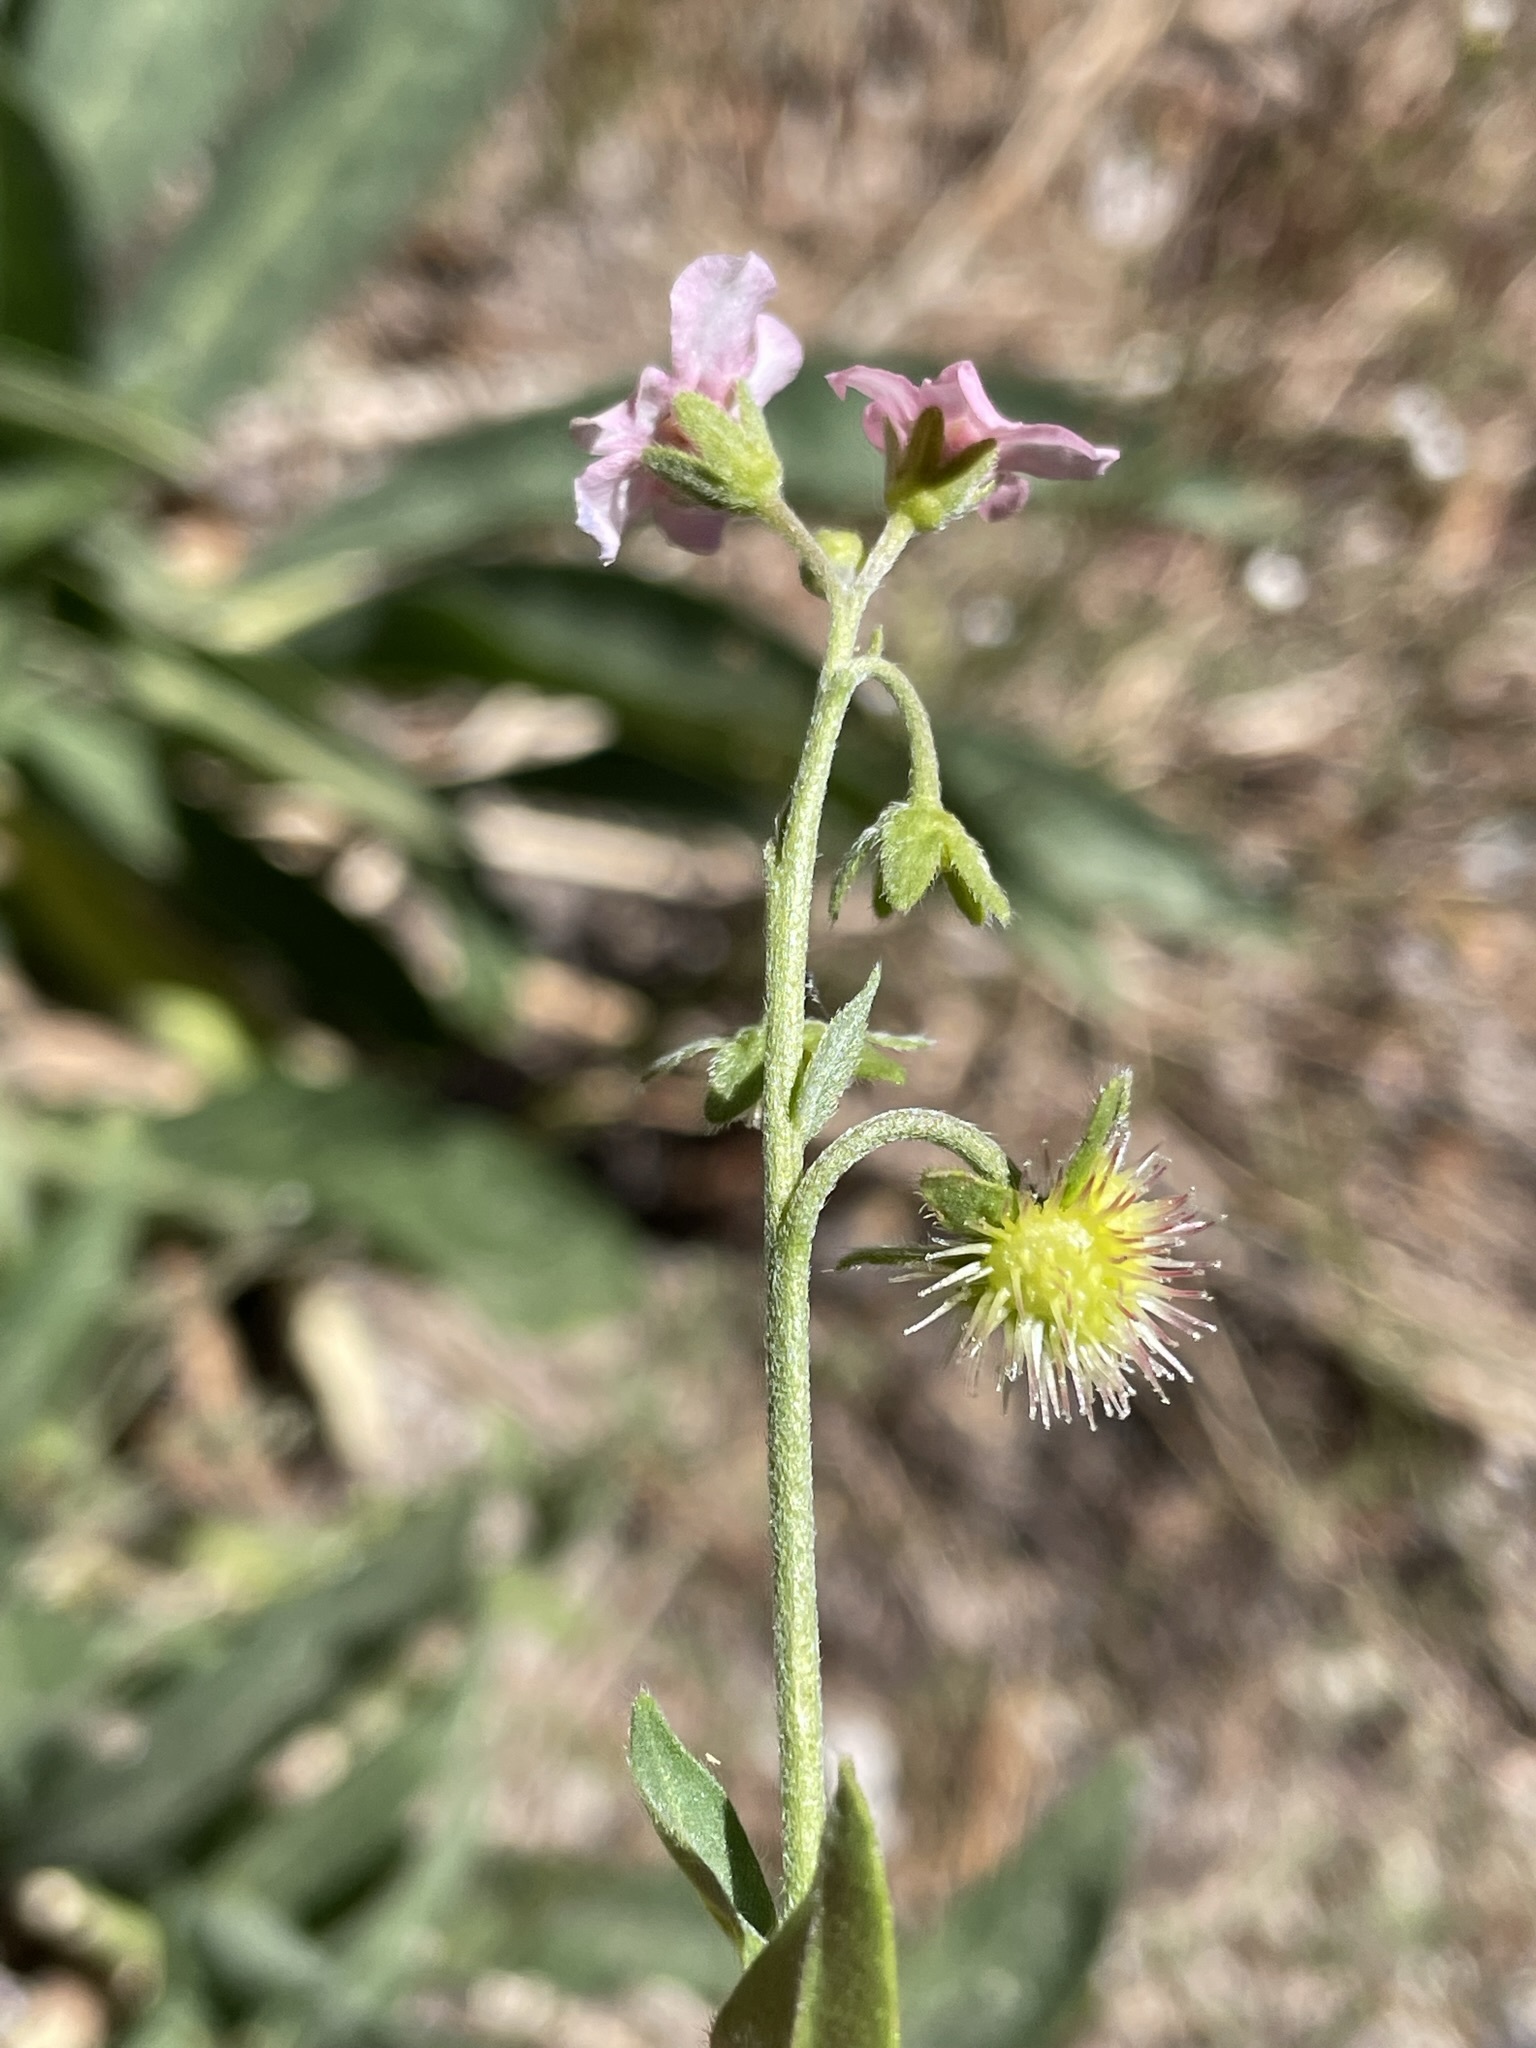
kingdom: Plantae
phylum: Tracheophyta
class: Magnoliopsida
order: Boraginales
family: Boraginaceae
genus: Hackelia
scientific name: Hackelia mundula
